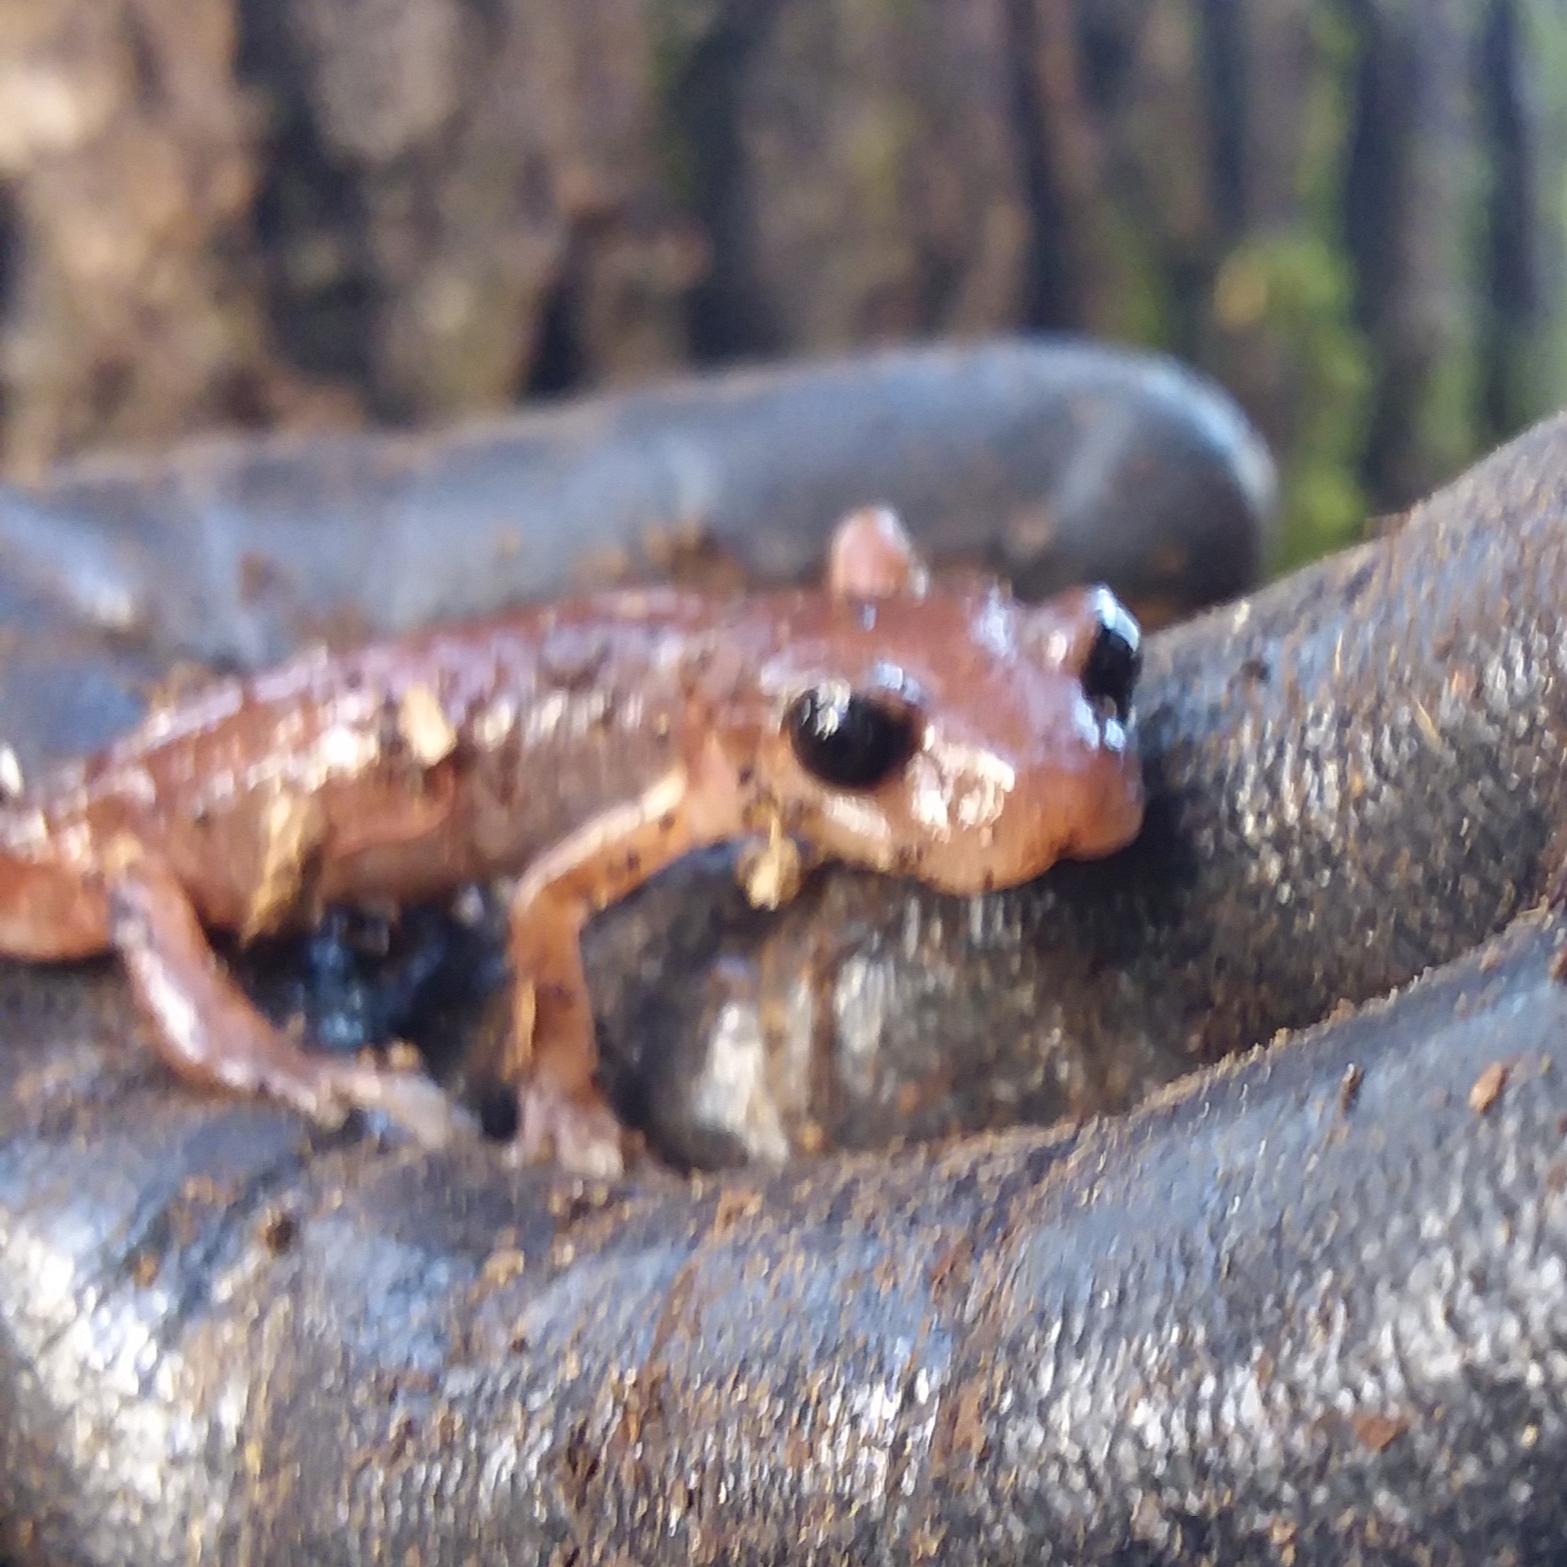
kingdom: Animalia
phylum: Chordata
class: Amphibia
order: Caudata
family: Plethodontidae
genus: Ensatina
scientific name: Ensatina eschscholtzii
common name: Ensatina
